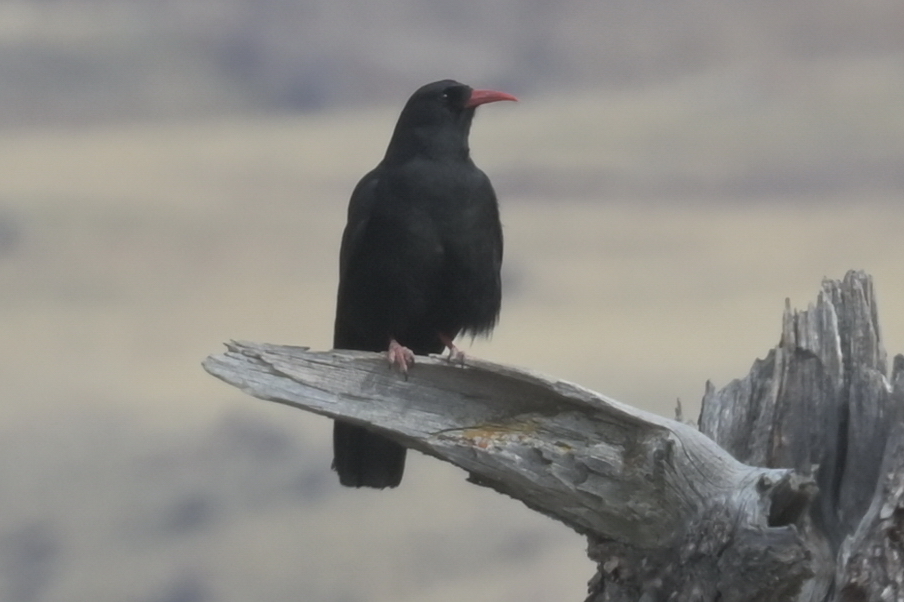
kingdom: Animalia
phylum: Chordata
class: Aves
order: Passeriformes
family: Corvidae
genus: Pyrrhocorax
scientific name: Pyrrhocorax pyrrhocorax
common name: Red-billed chough
